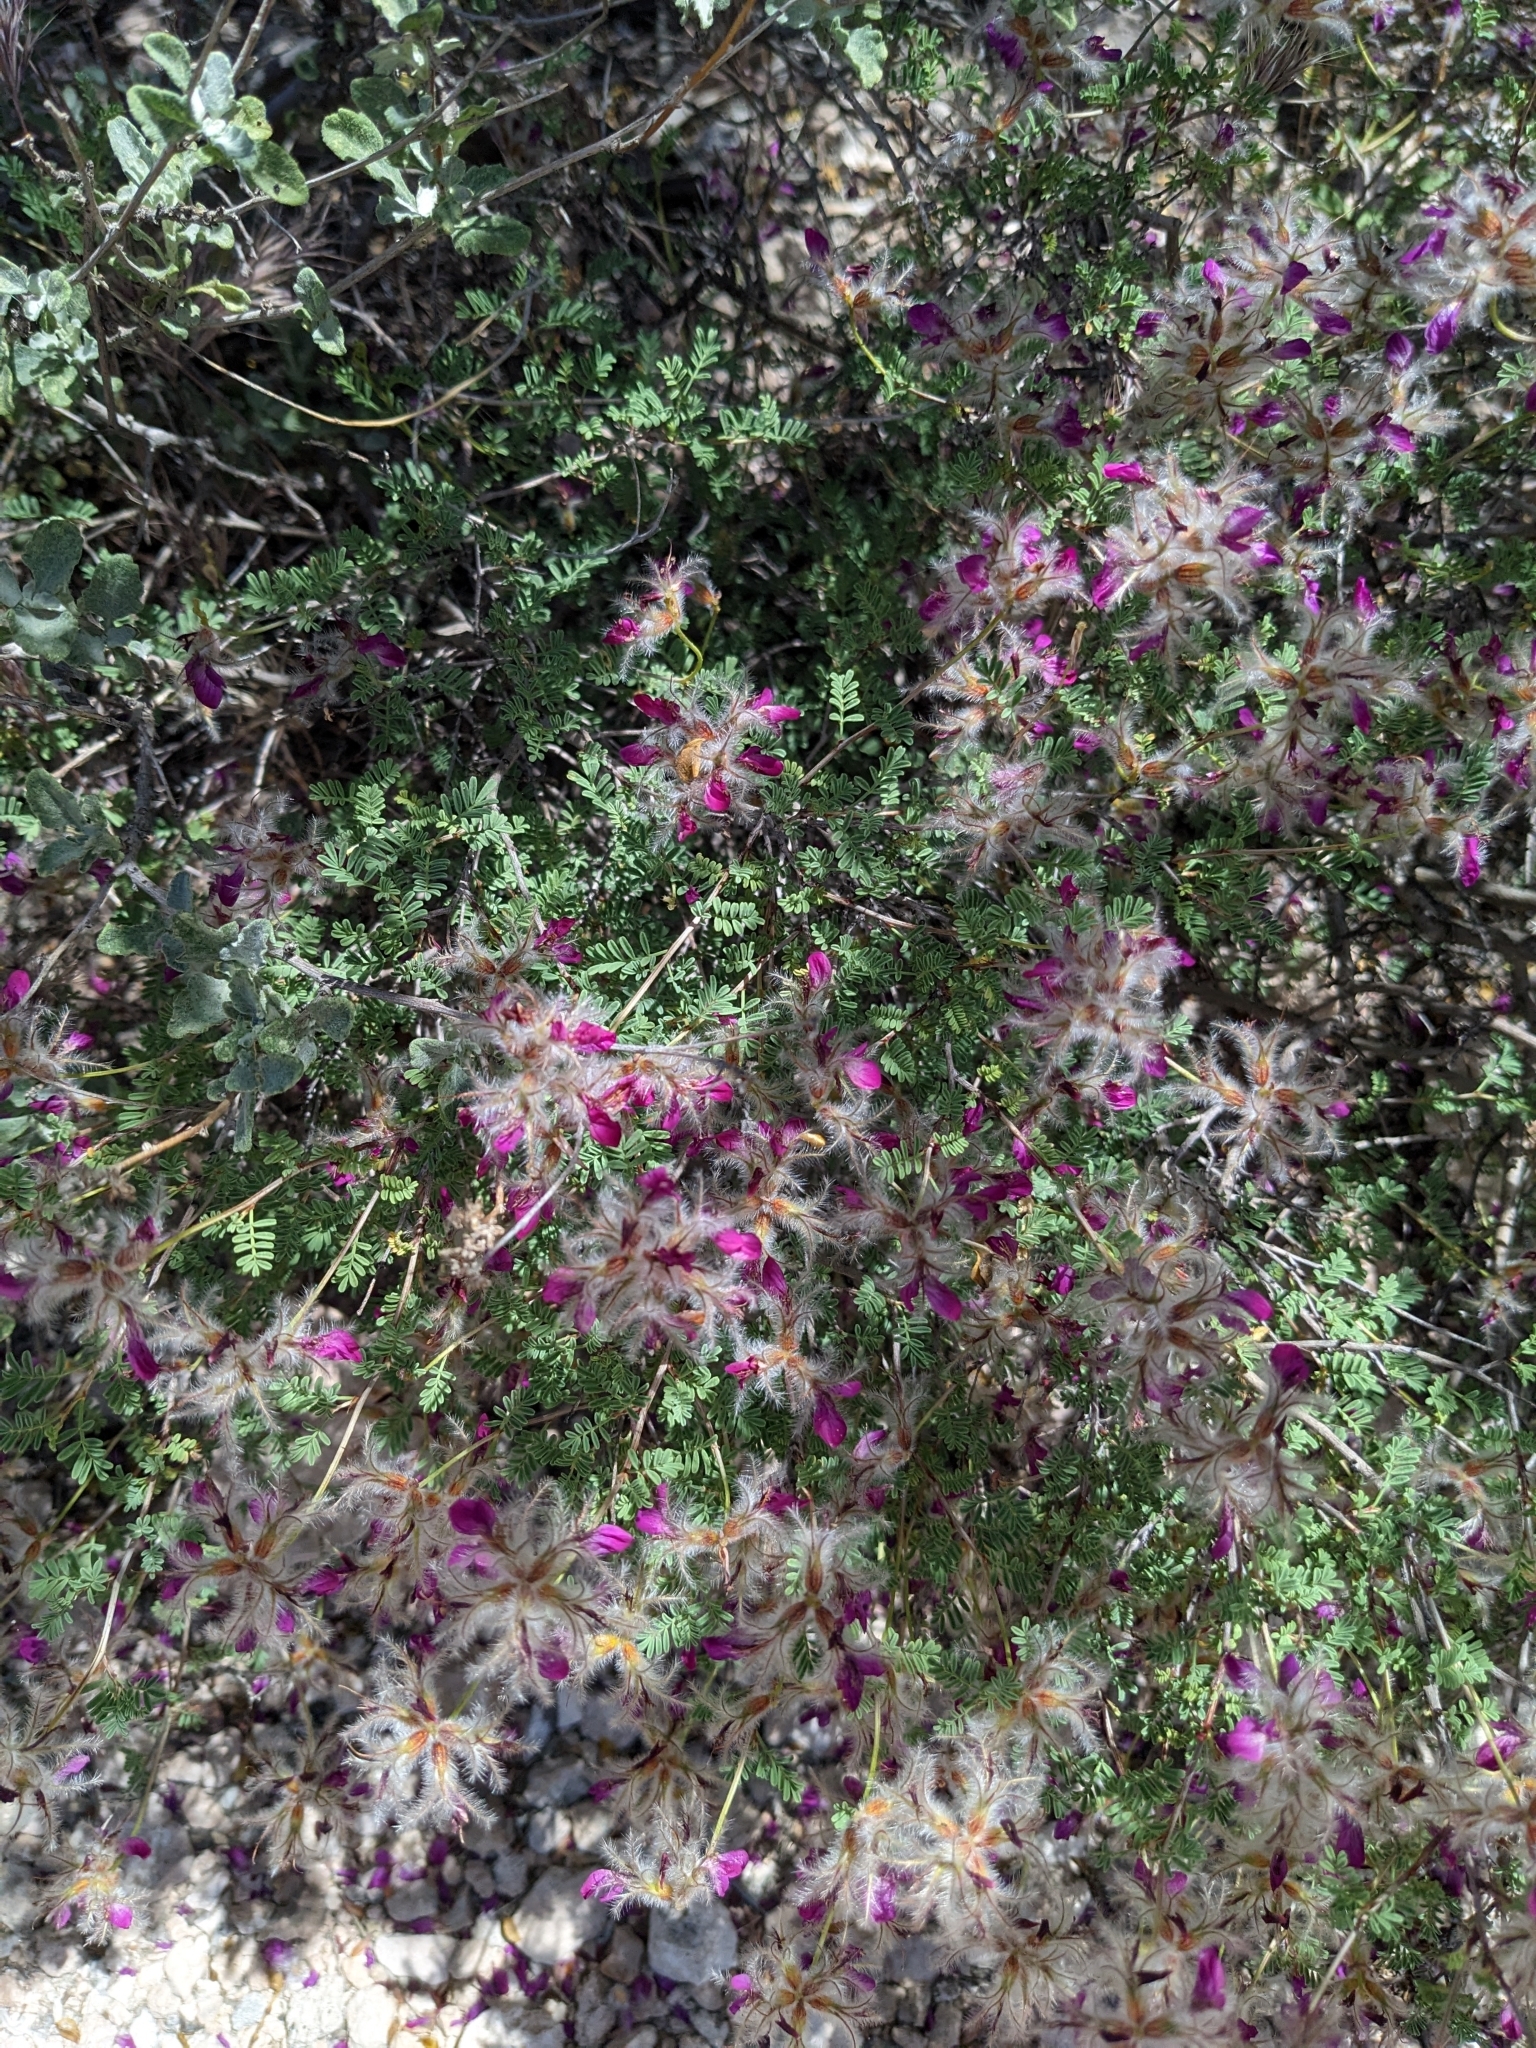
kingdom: Plantae
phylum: Tracheophyta
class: Magnoliopsida
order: Fabales
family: Fabaceae
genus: Dalea
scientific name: Dalea formosa
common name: Feather-plume dalea
